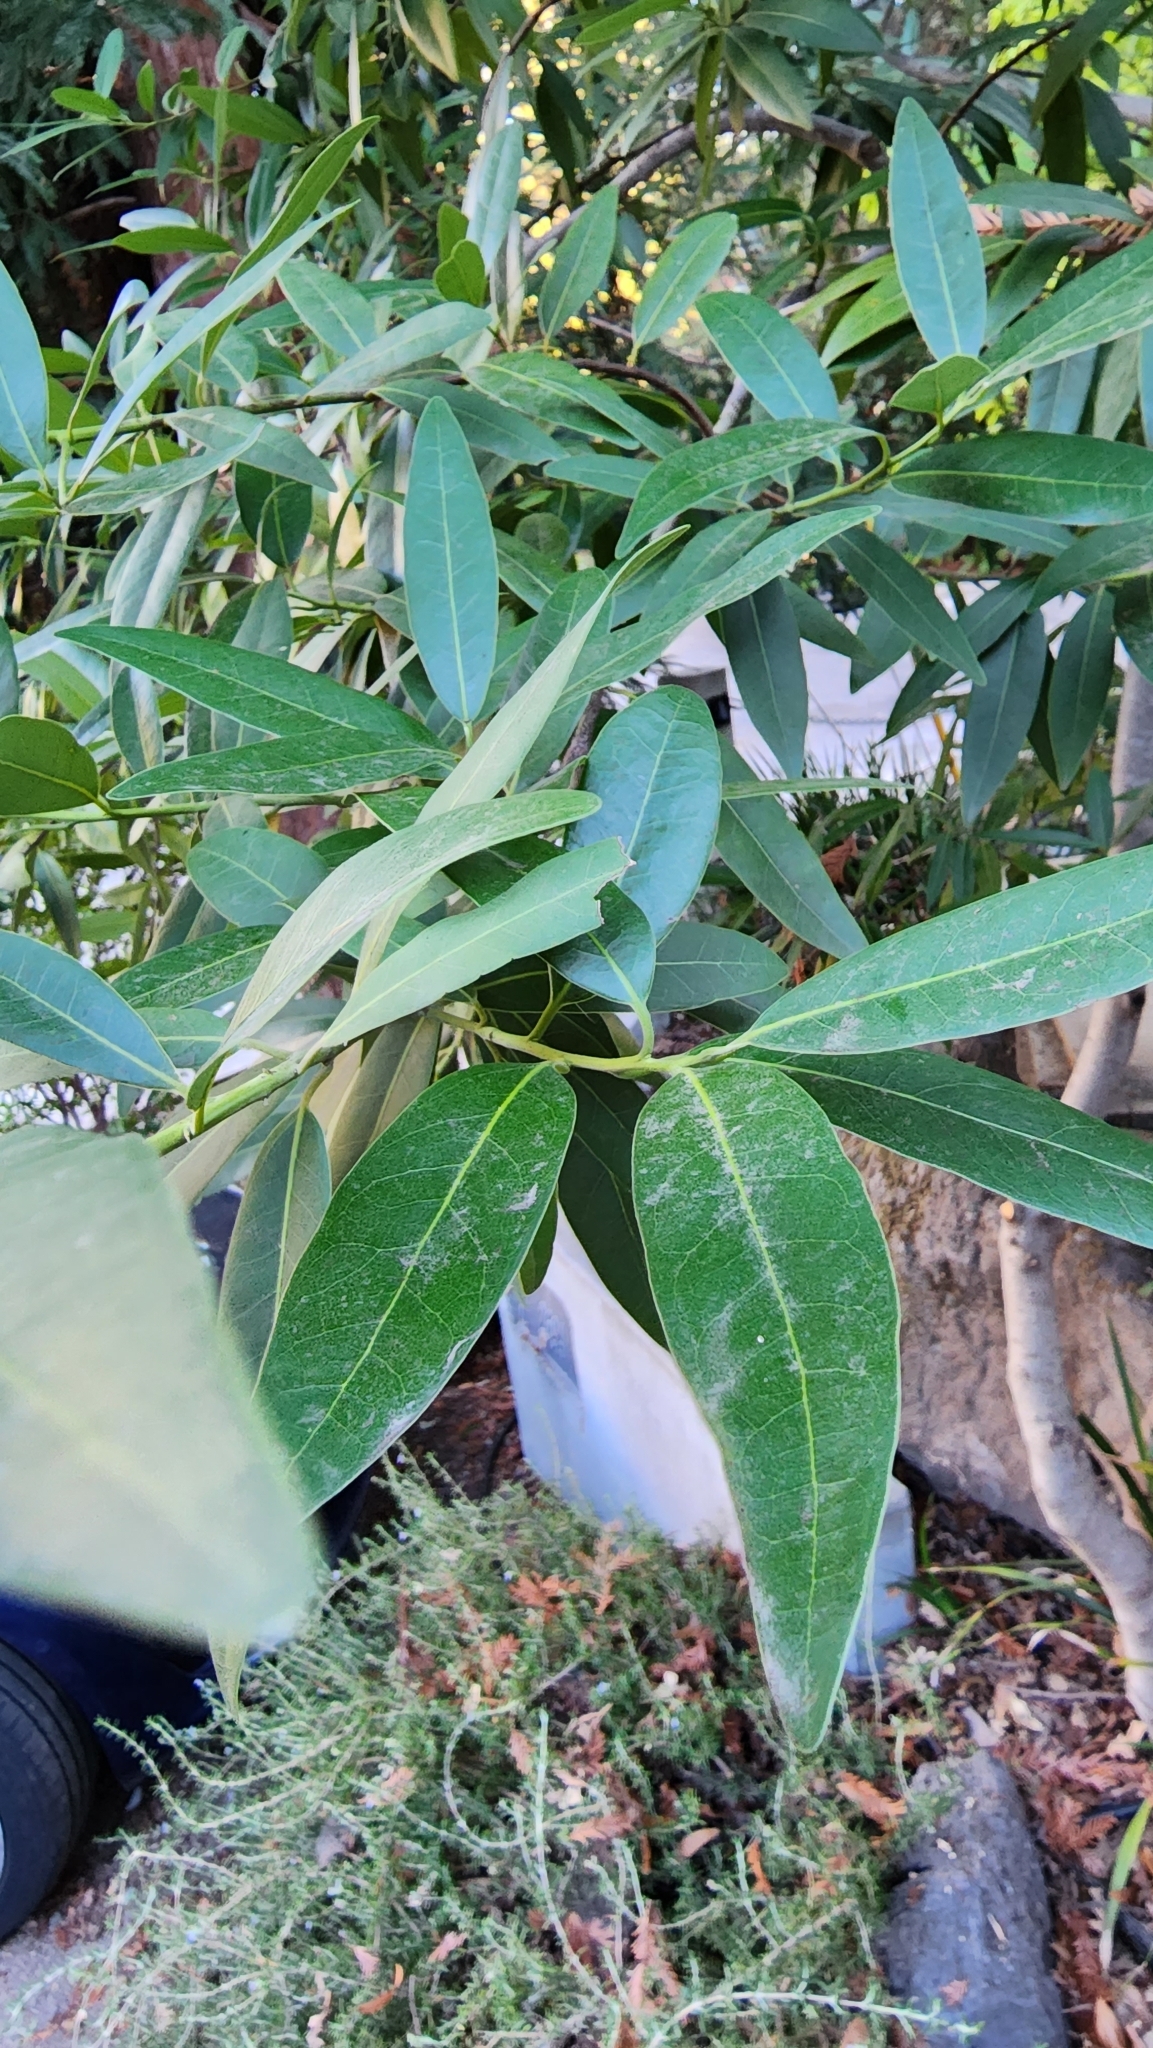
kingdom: Plantae
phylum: Tracheophyta
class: Magnoliopsida
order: Laurales
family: Lauraceae
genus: Umbellularia
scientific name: Umbellularia californica
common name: California bay
